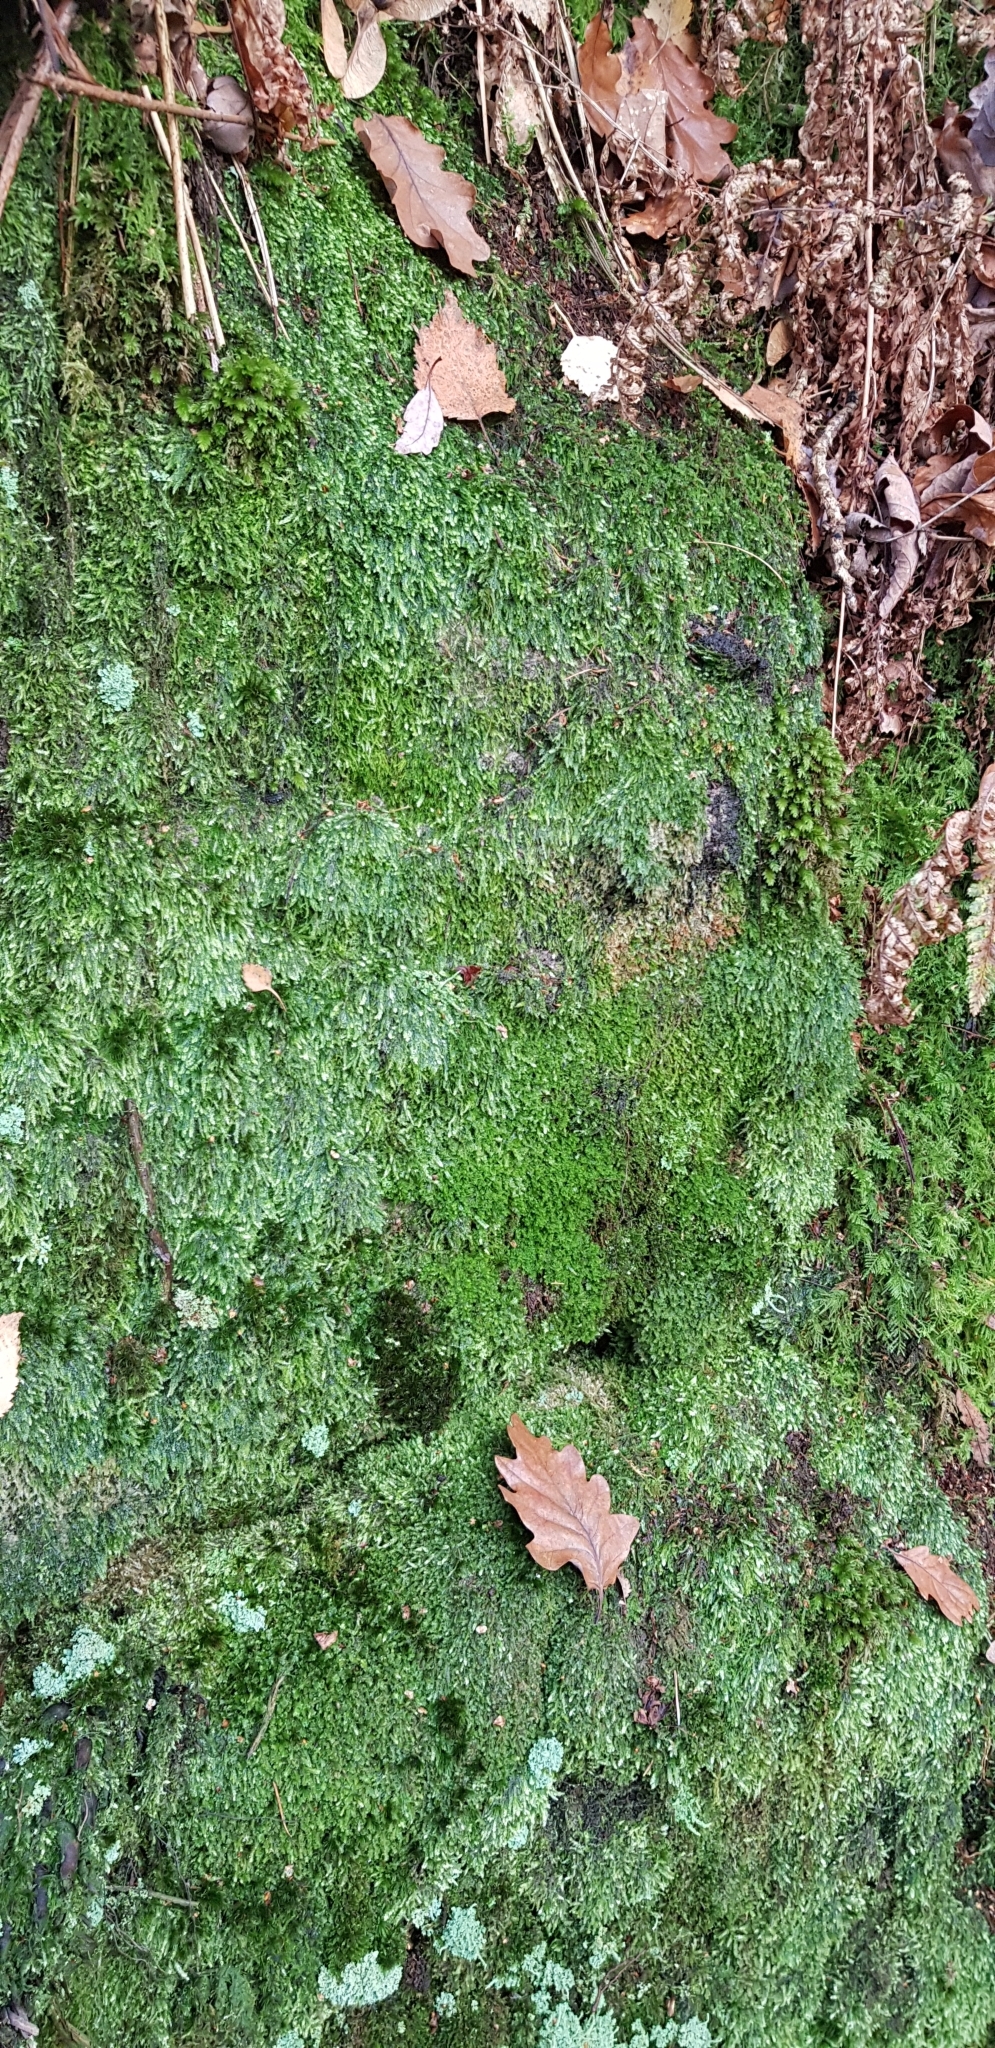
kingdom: Plantae
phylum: Marchantiophyta
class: Jungermanniopsida
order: Jungermanniales
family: Lophoziaceae
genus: Lophozia
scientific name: Lophozia ventricosa
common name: Tumid notchwort
